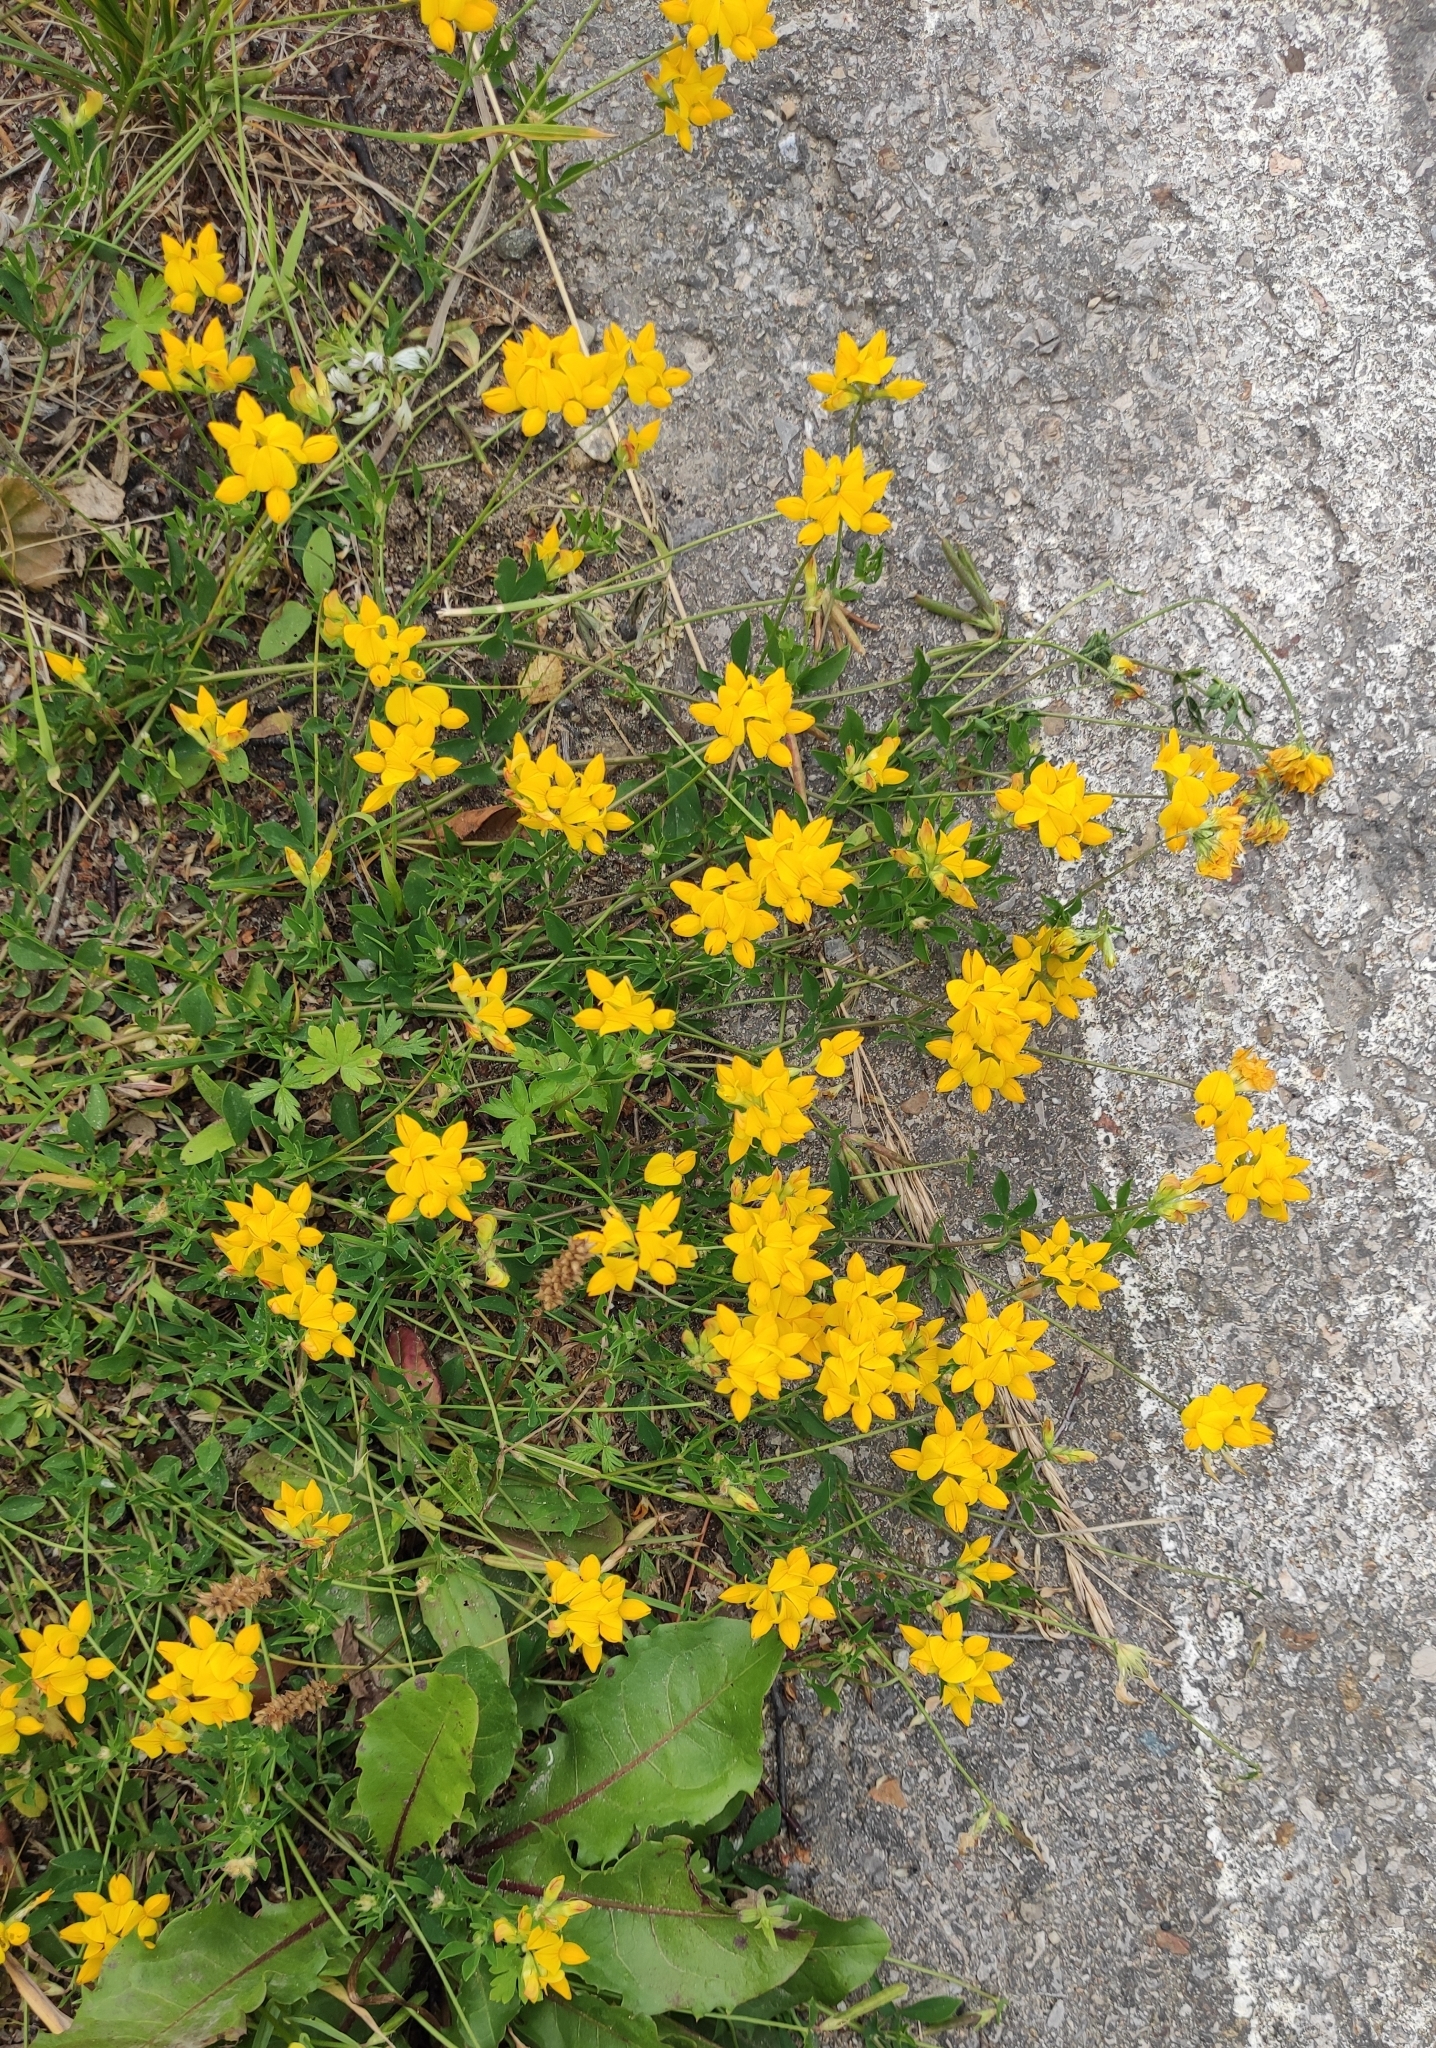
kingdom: Plantae
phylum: Tracheophyta
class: Magnoliopsida
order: Fabales
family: Fabaceae
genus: Lotus
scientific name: Lotus corniculatus
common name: Common bird's-foot-trefoil
